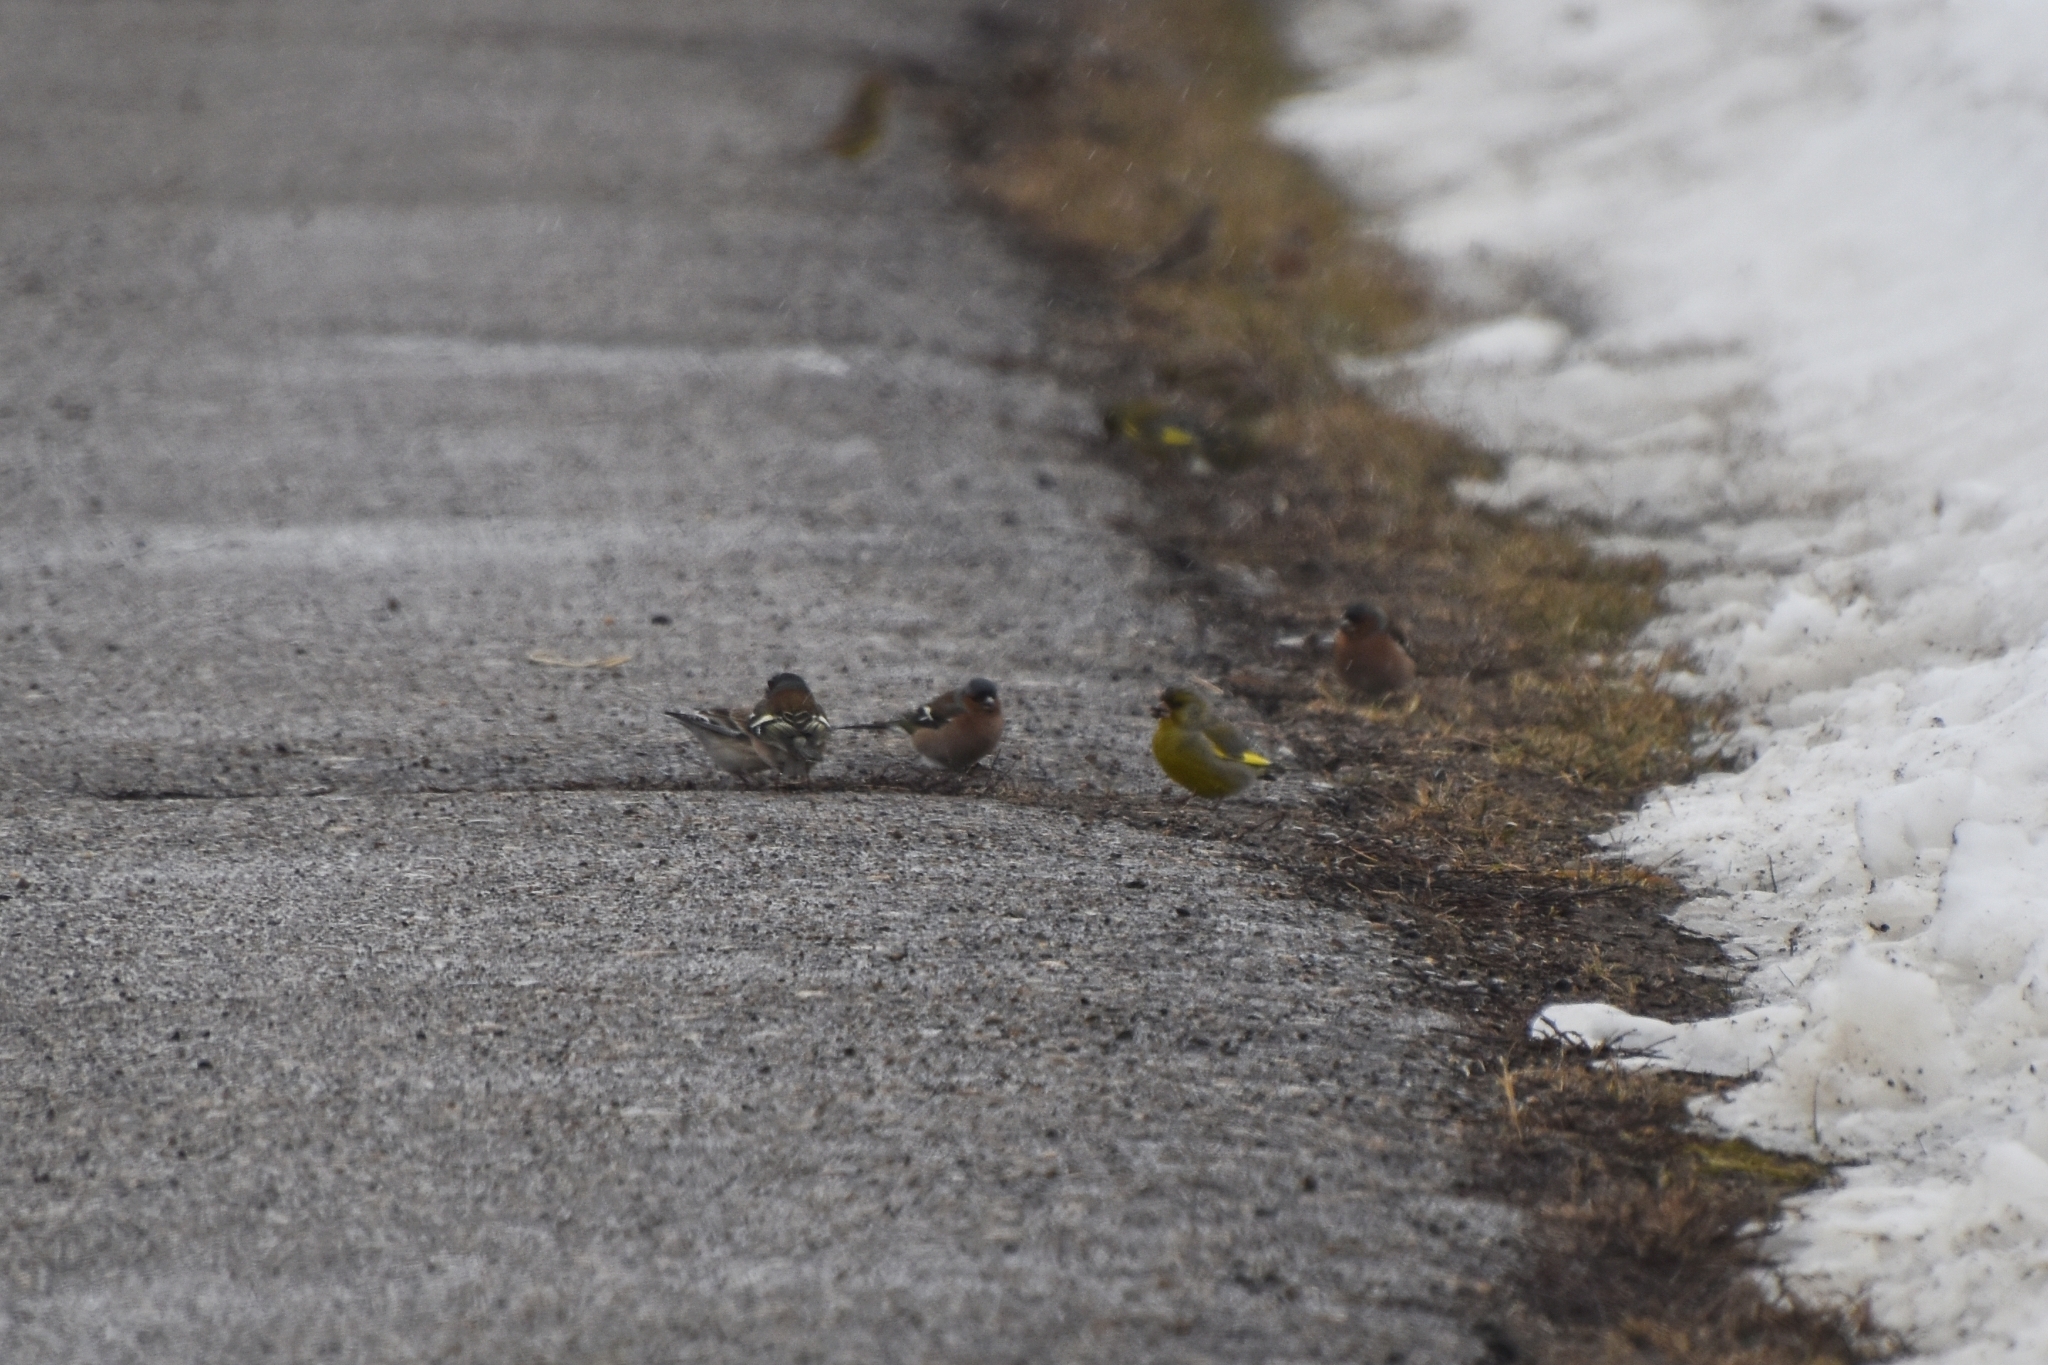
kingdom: Plantae
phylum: Tracheophyta
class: Liliopsida
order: Poales
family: Poaceae
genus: Chloris
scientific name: Chloris chloris
